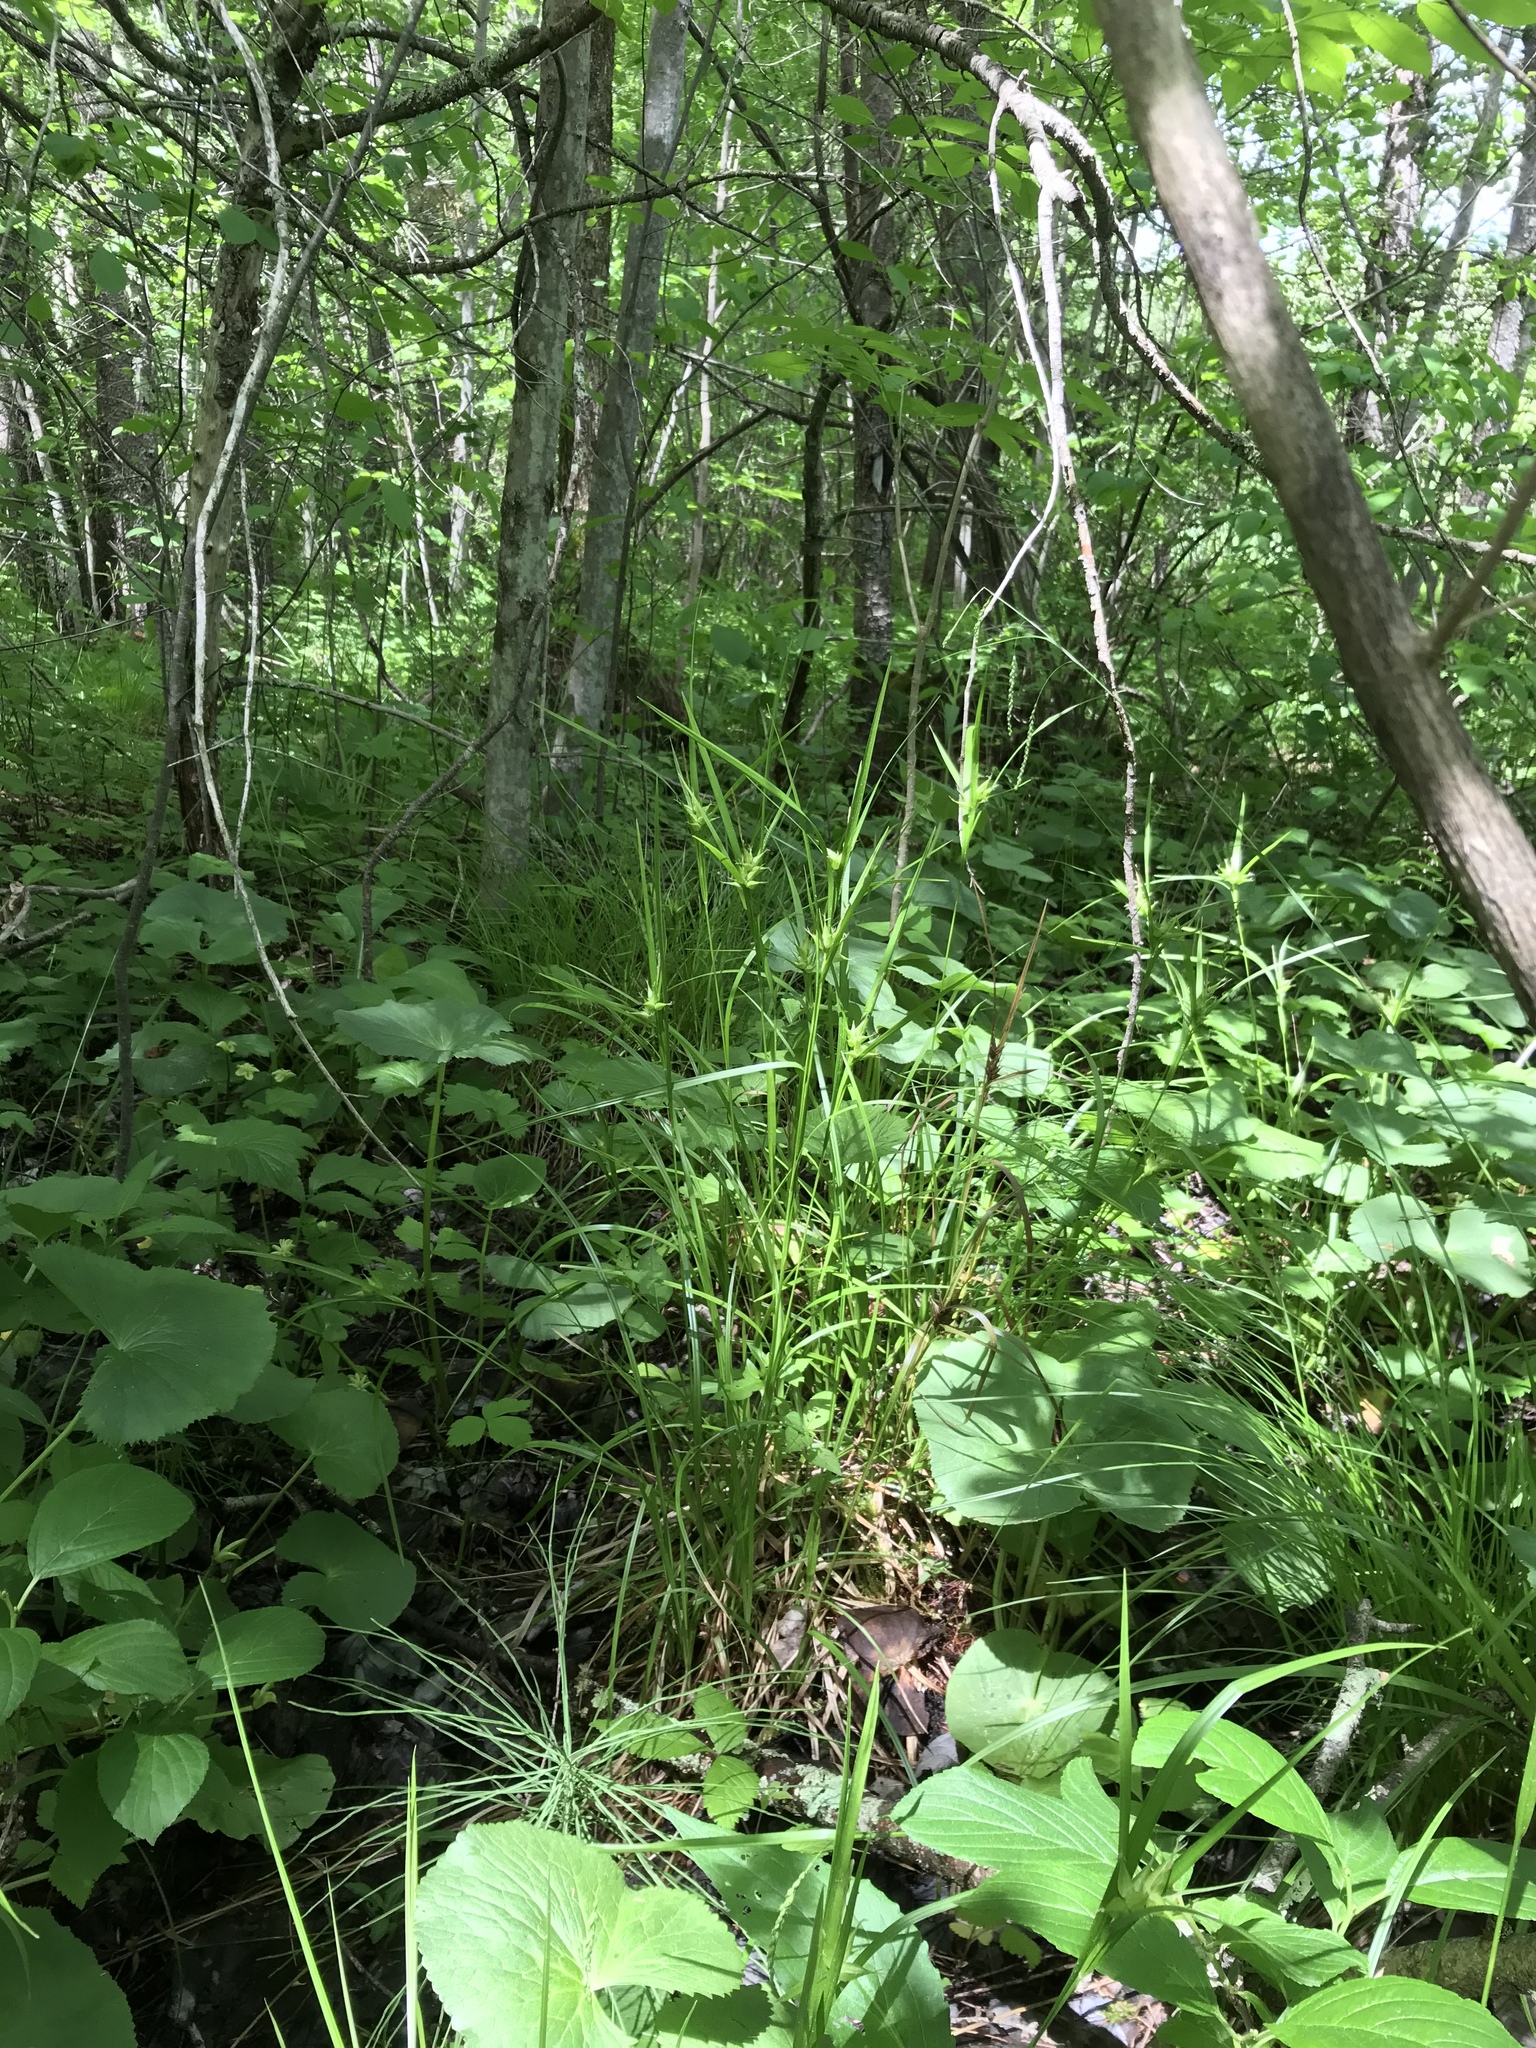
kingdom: Plantae
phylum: Tracheophyta
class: Liliopsida
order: Poales
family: Cyperaceae
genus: Carex
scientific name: Carex intumescens
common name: Greater bladder sedge
